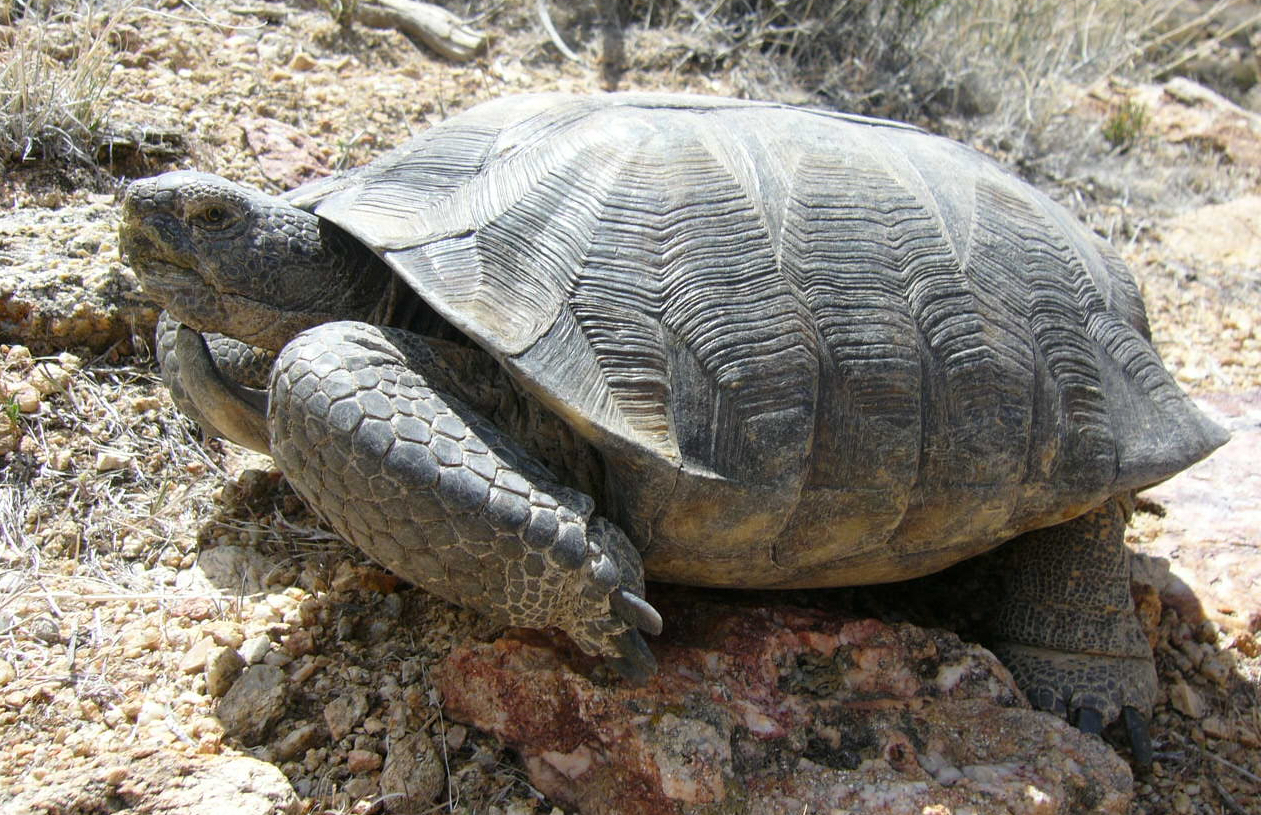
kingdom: Animalia
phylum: Chordata
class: Testudines
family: Testudinidae
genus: Gopherus
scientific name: Gopherus agassizii
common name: Mojave desert tortoise
